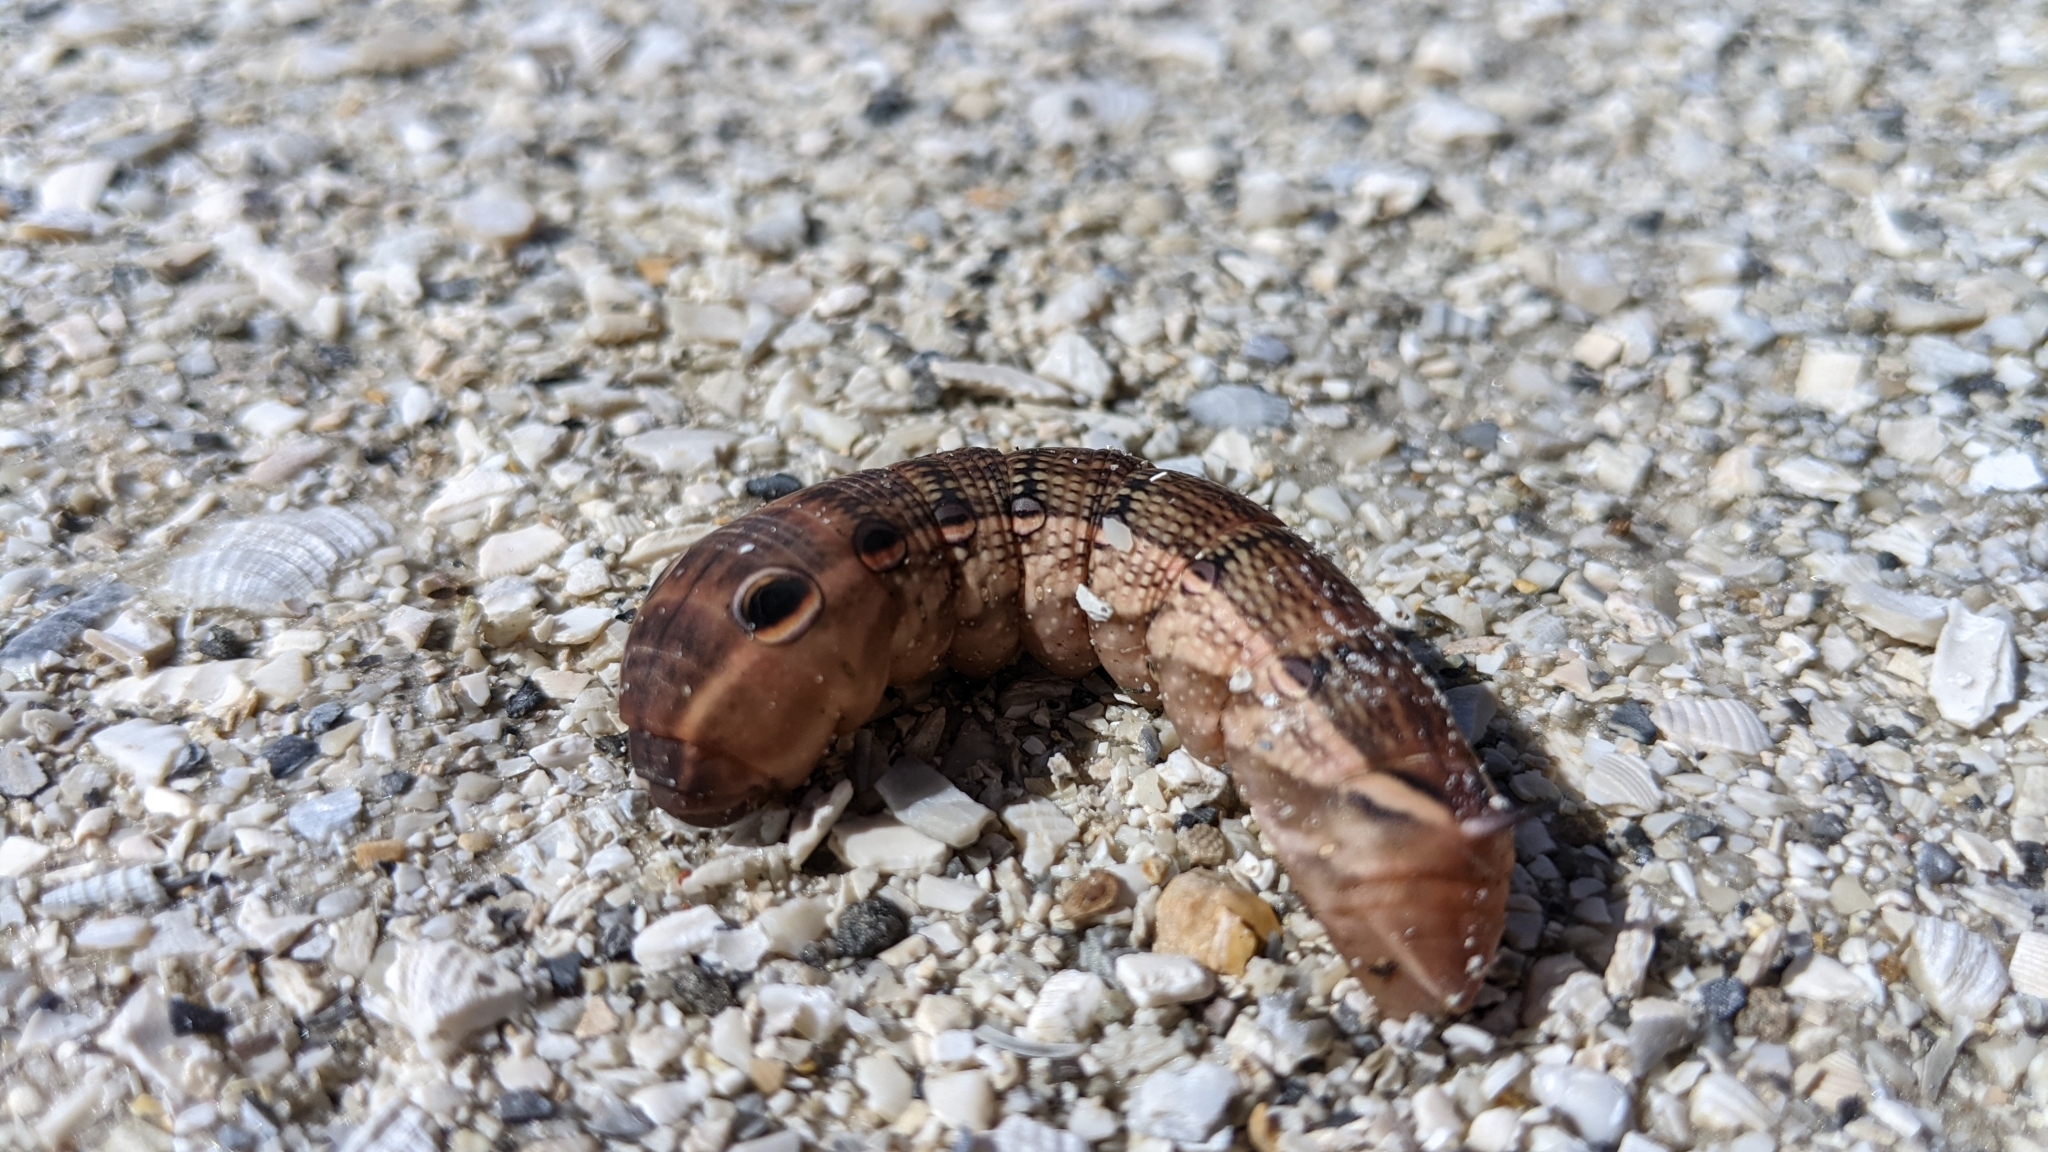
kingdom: Animalia
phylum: Arthropoda
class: Insecta
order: Lepidoptera
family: Sphingidae
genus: Xylophanes
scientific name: Xylophanes tersa
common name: Tersa sphinx
